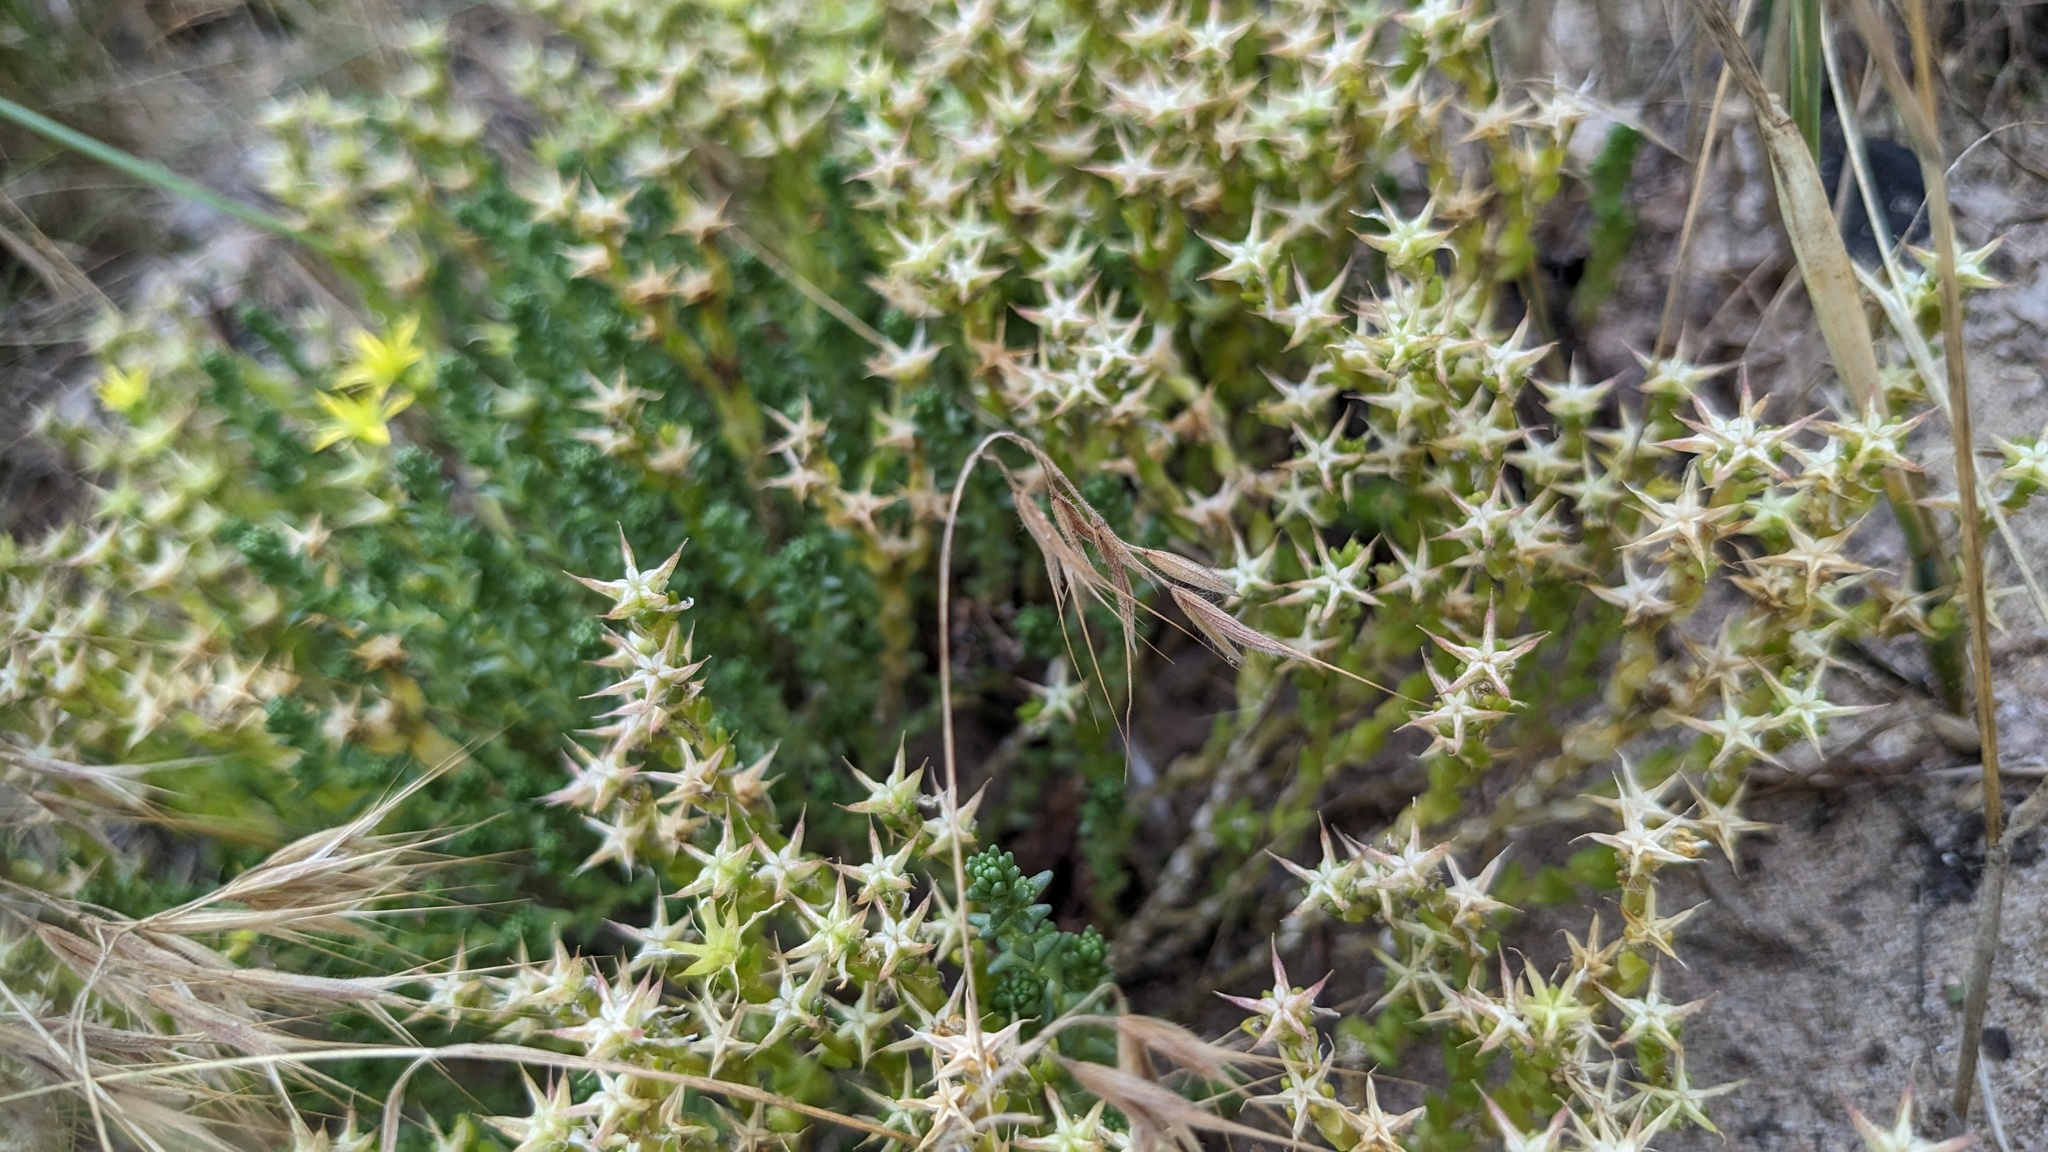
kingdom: Plantae
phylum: Tracheophyta
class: Magnoliopsida
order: Saxifragales
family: Crassulaceae
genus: Sedum
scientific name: Sedum acre
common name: Biting stonecrop
